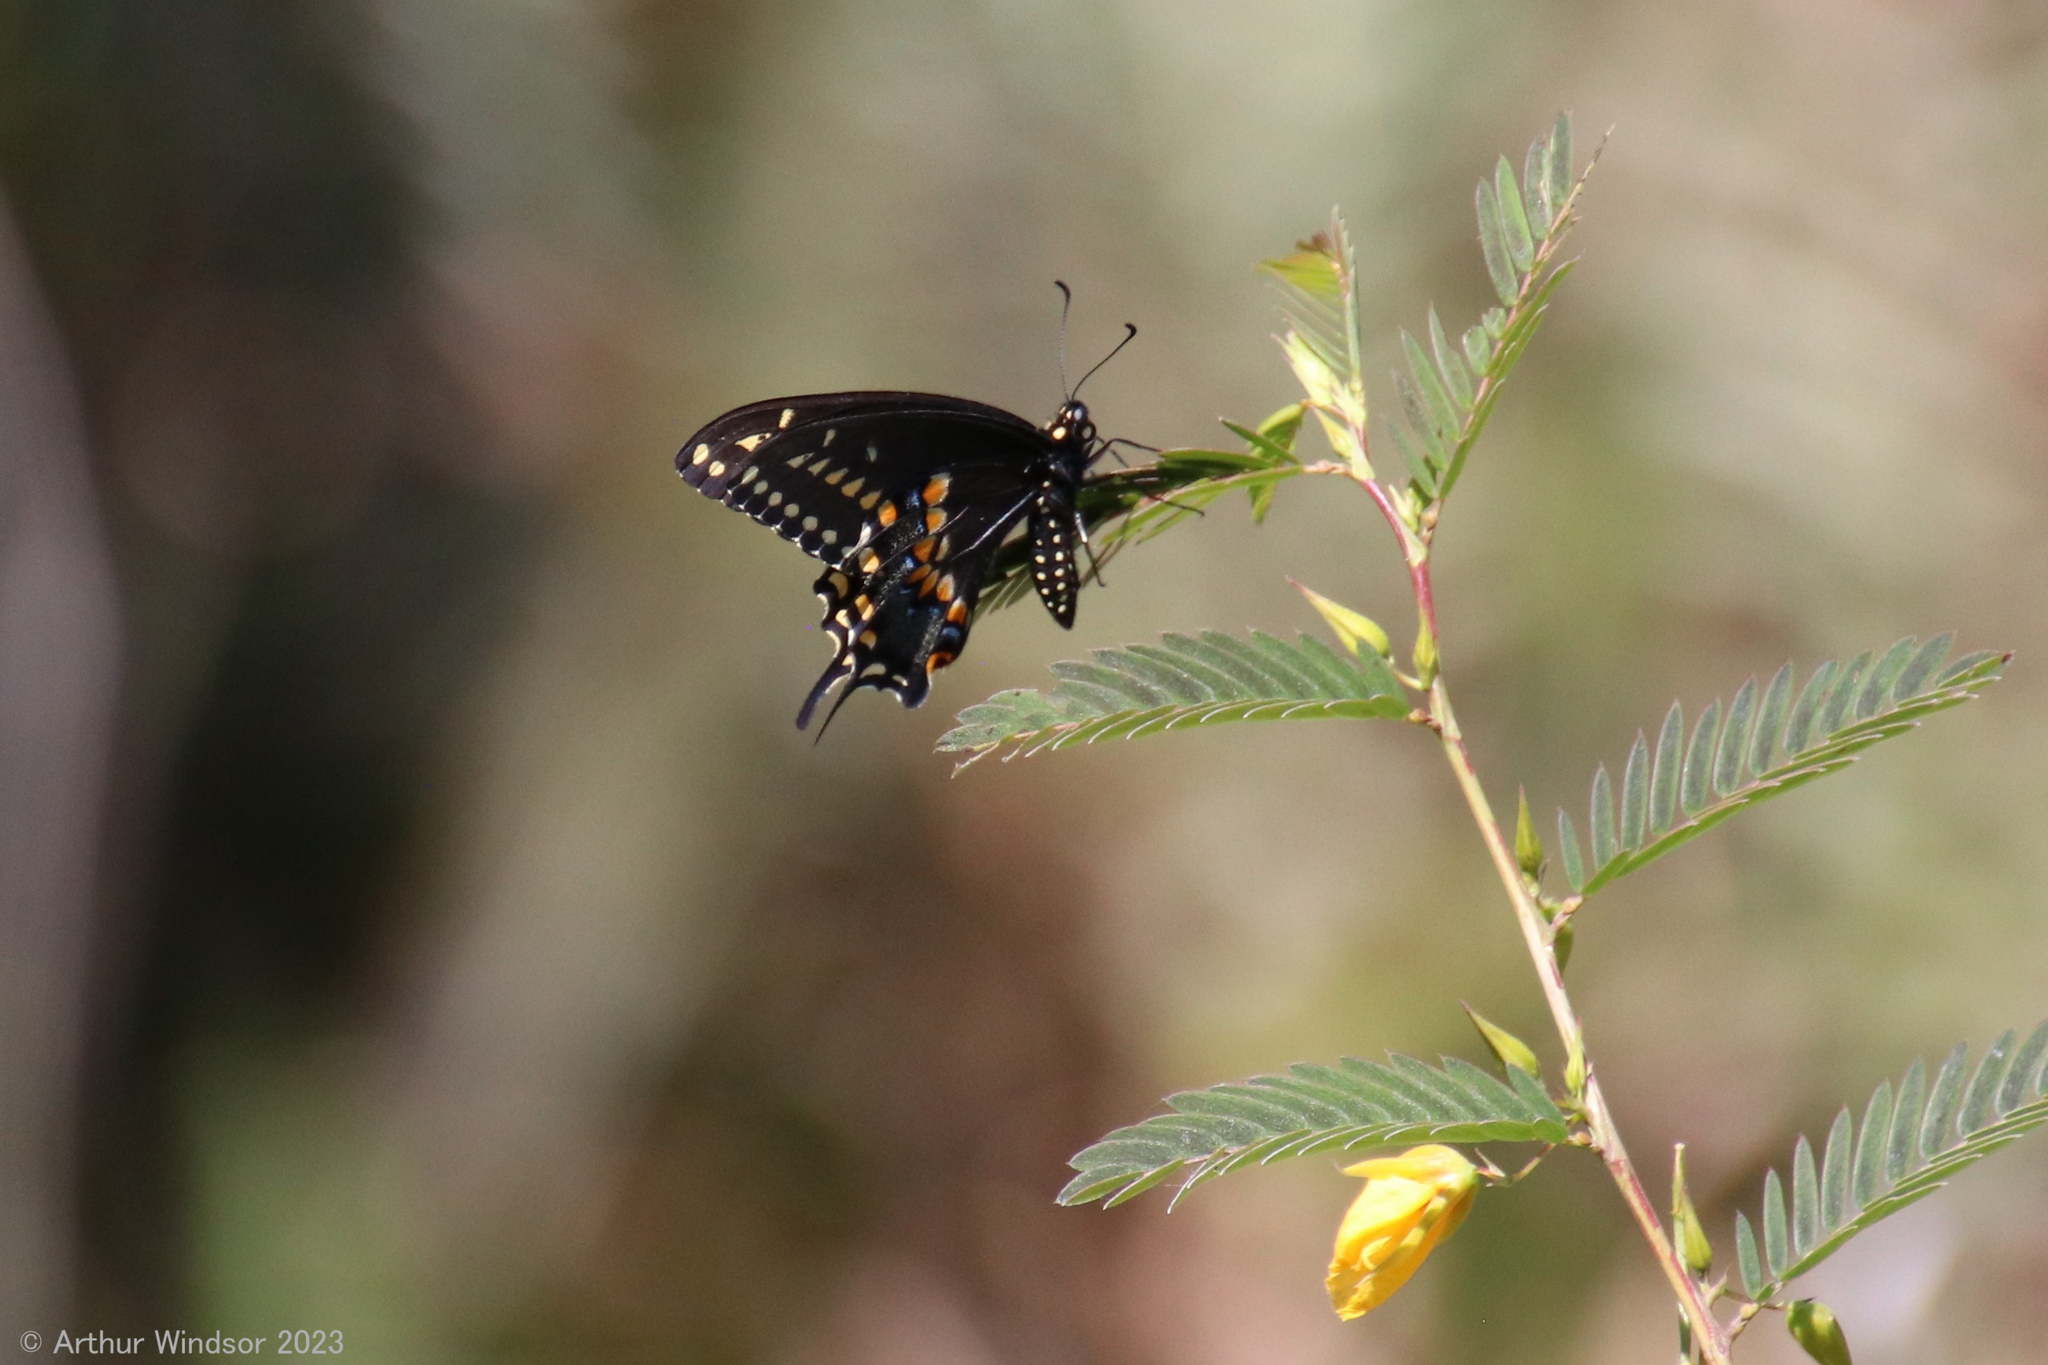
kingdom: Animalia
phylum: Arthropoda
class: Insecta
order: Lepidoptera
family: Papilionidae
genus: Papilio
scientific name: Papilio polyxenes
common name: Black swallowtail
